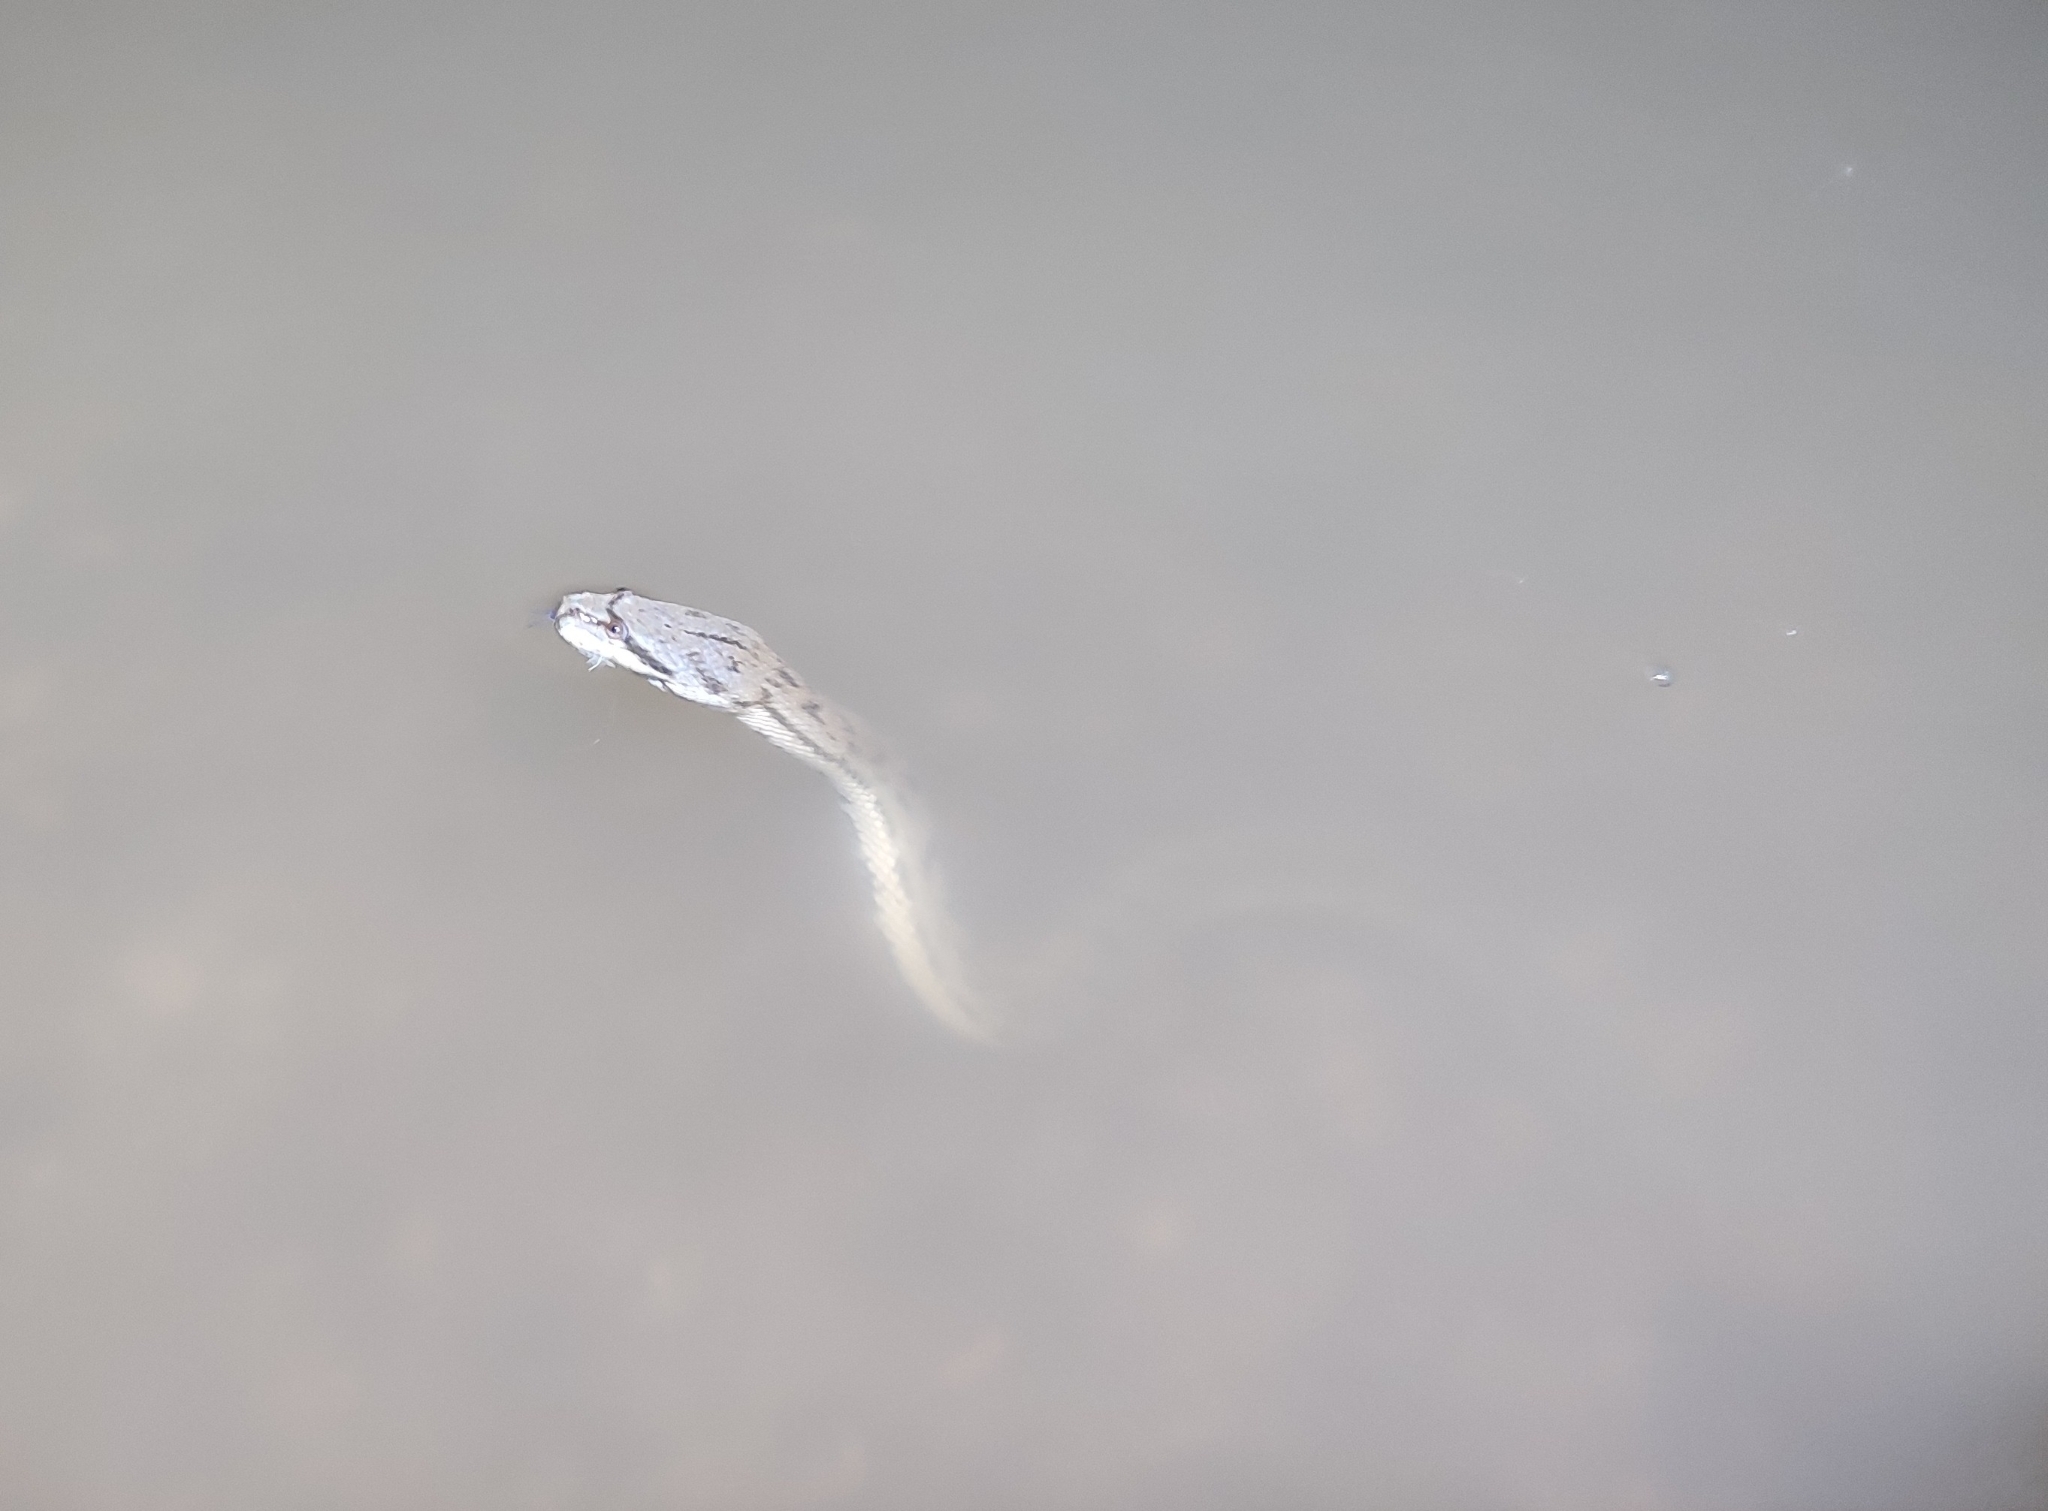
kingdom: Animalia
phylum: Chordata
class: Squamata
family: Homalopsidae
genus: Cerberus
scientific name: Cerberus schneiderii
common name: Southeast asian bockadam
